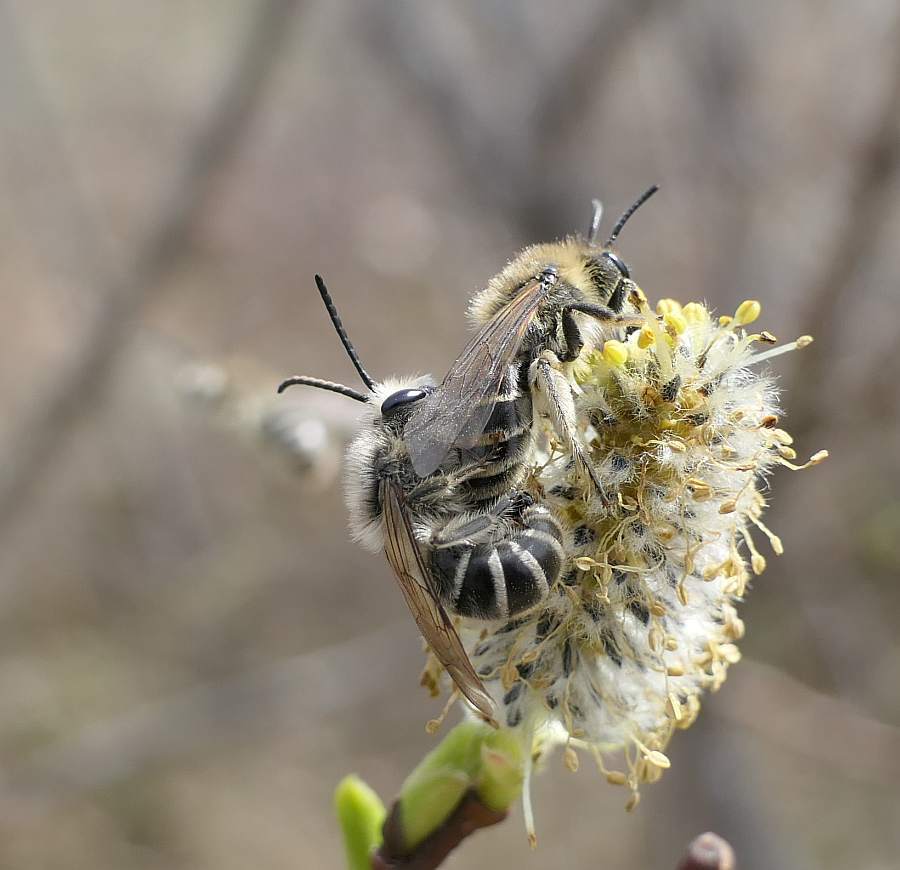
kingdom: Animalia
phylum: Arthropoda
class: Insecta
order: Hymenoptera
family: Colletidae
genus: Colletes
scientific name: Colletes inaequalis
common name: Unequal cellophane bee
